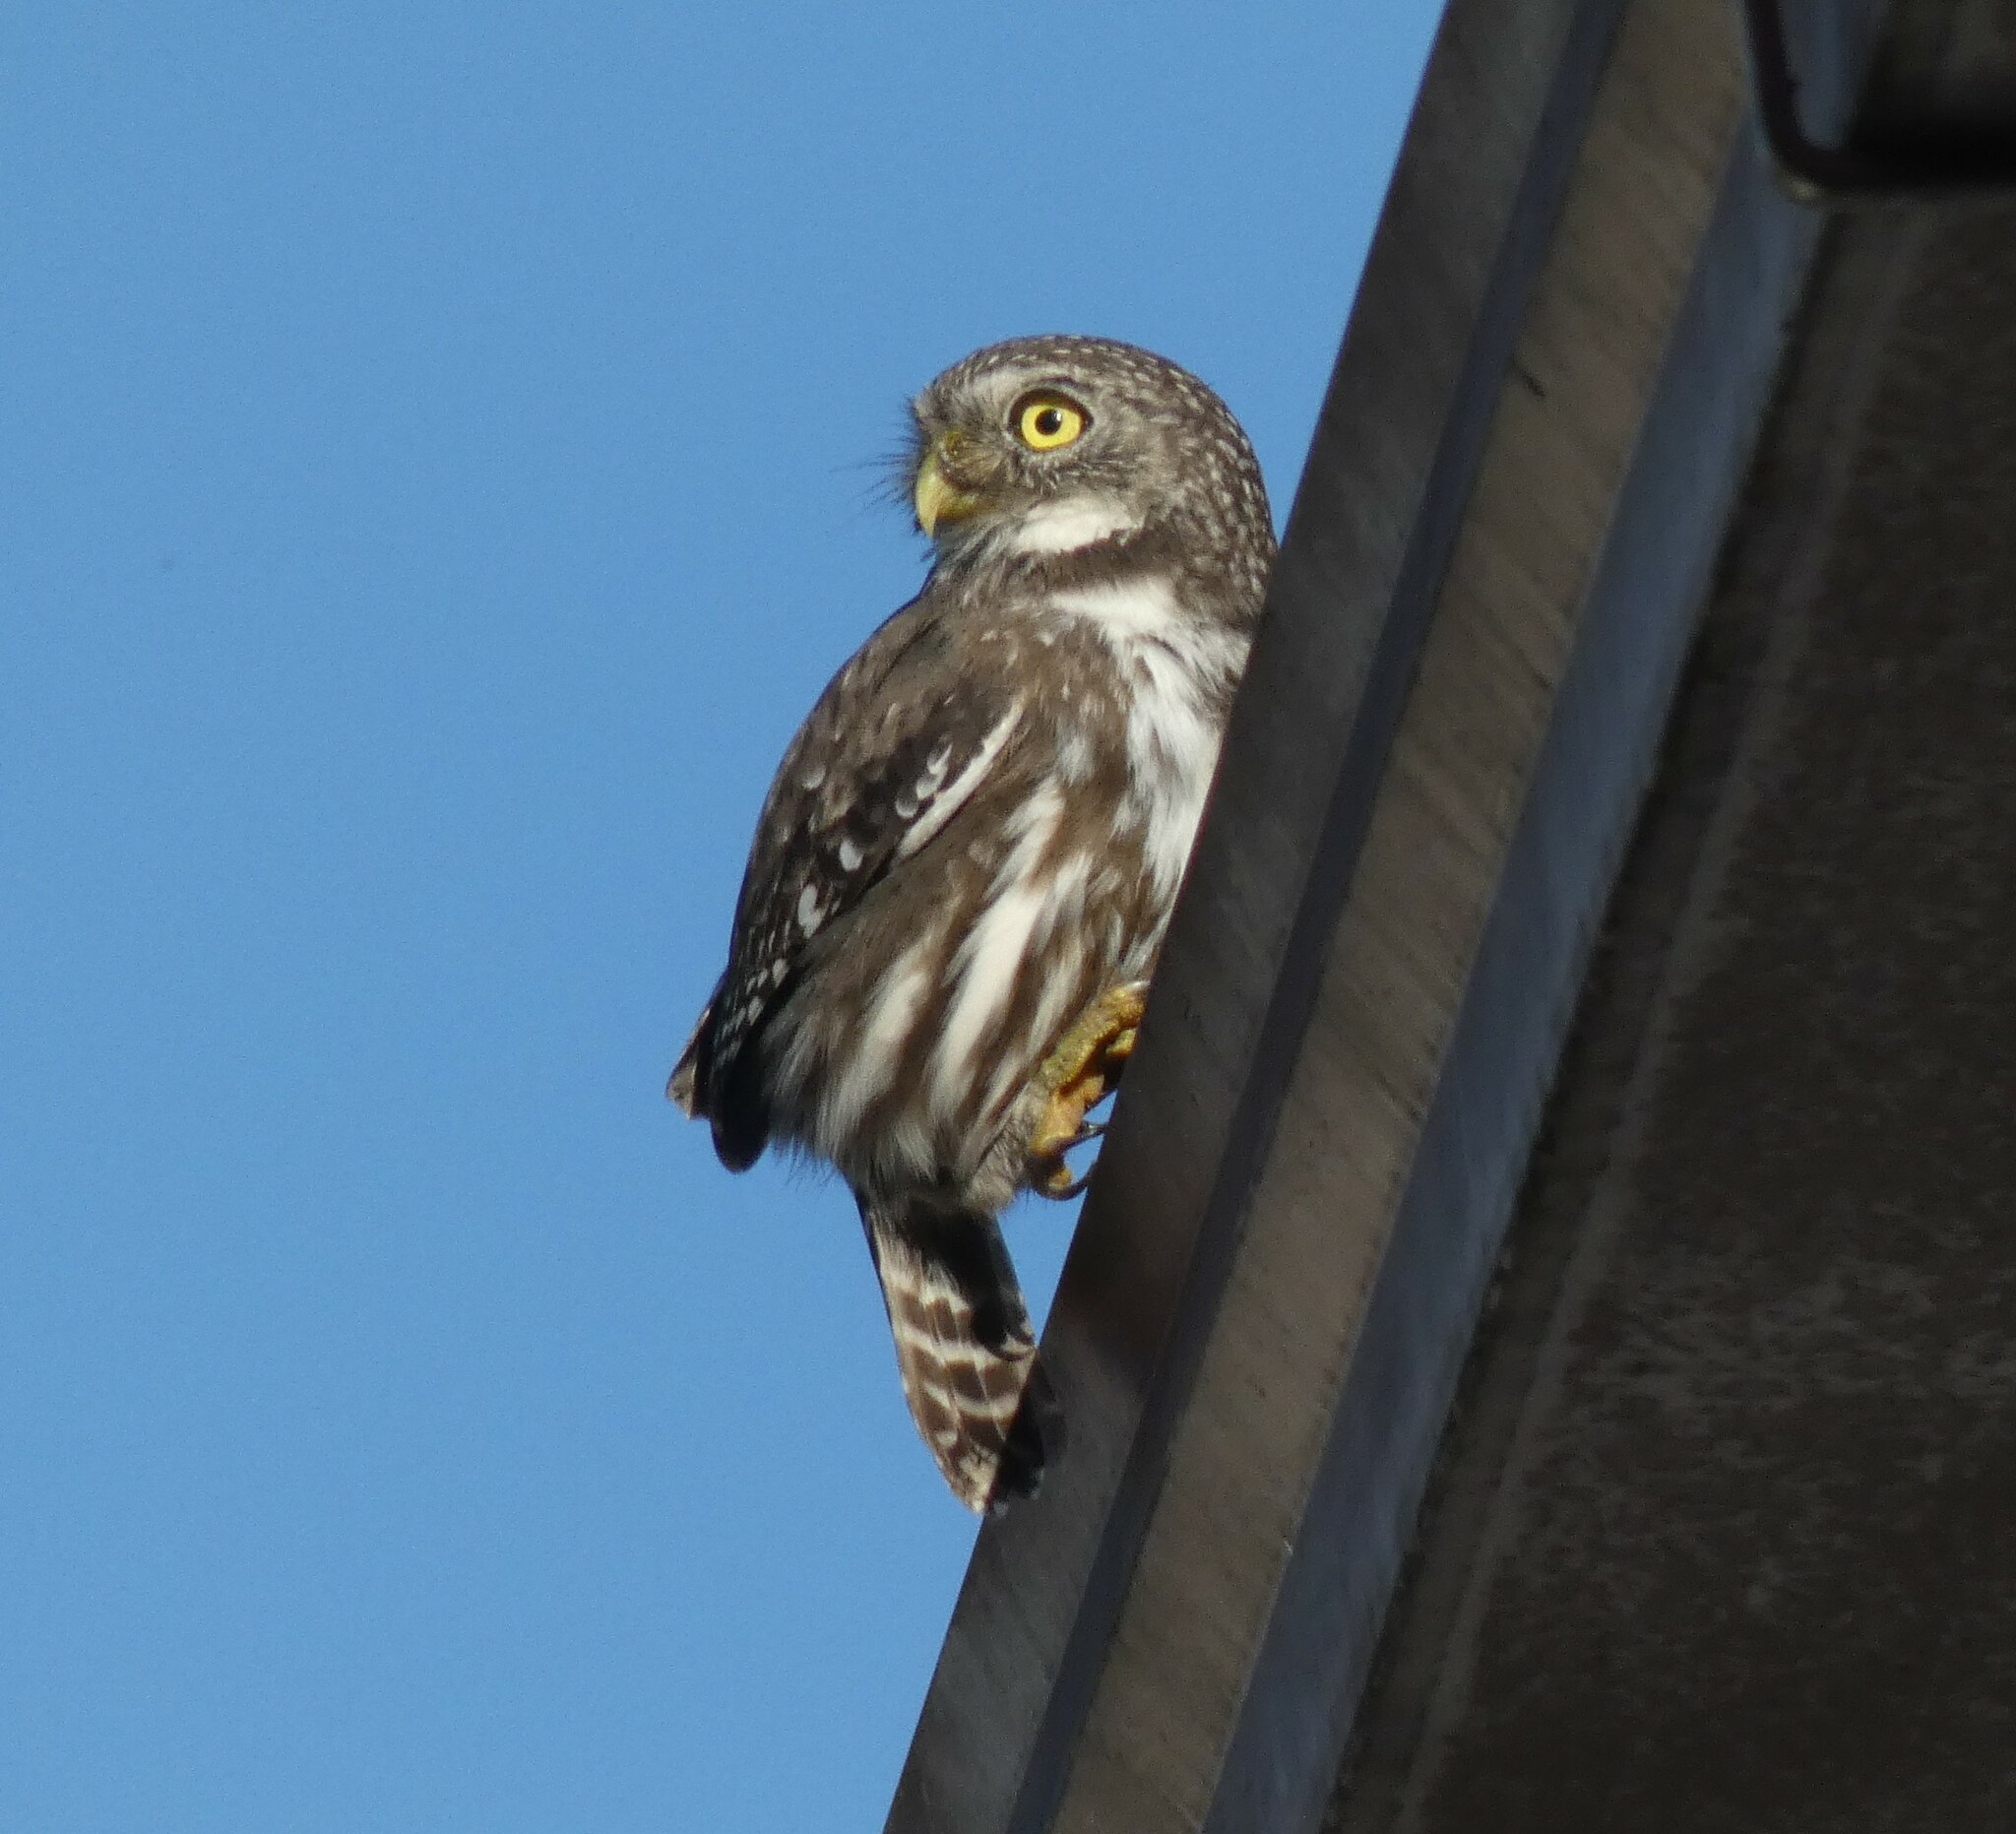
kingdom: Animalia
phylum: Chordata
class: Aves
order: Strigiformes
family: Strigidae
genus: Glaucidium
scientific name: Glaucidium brasilianum
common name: Ferruginous pygmy-owl
